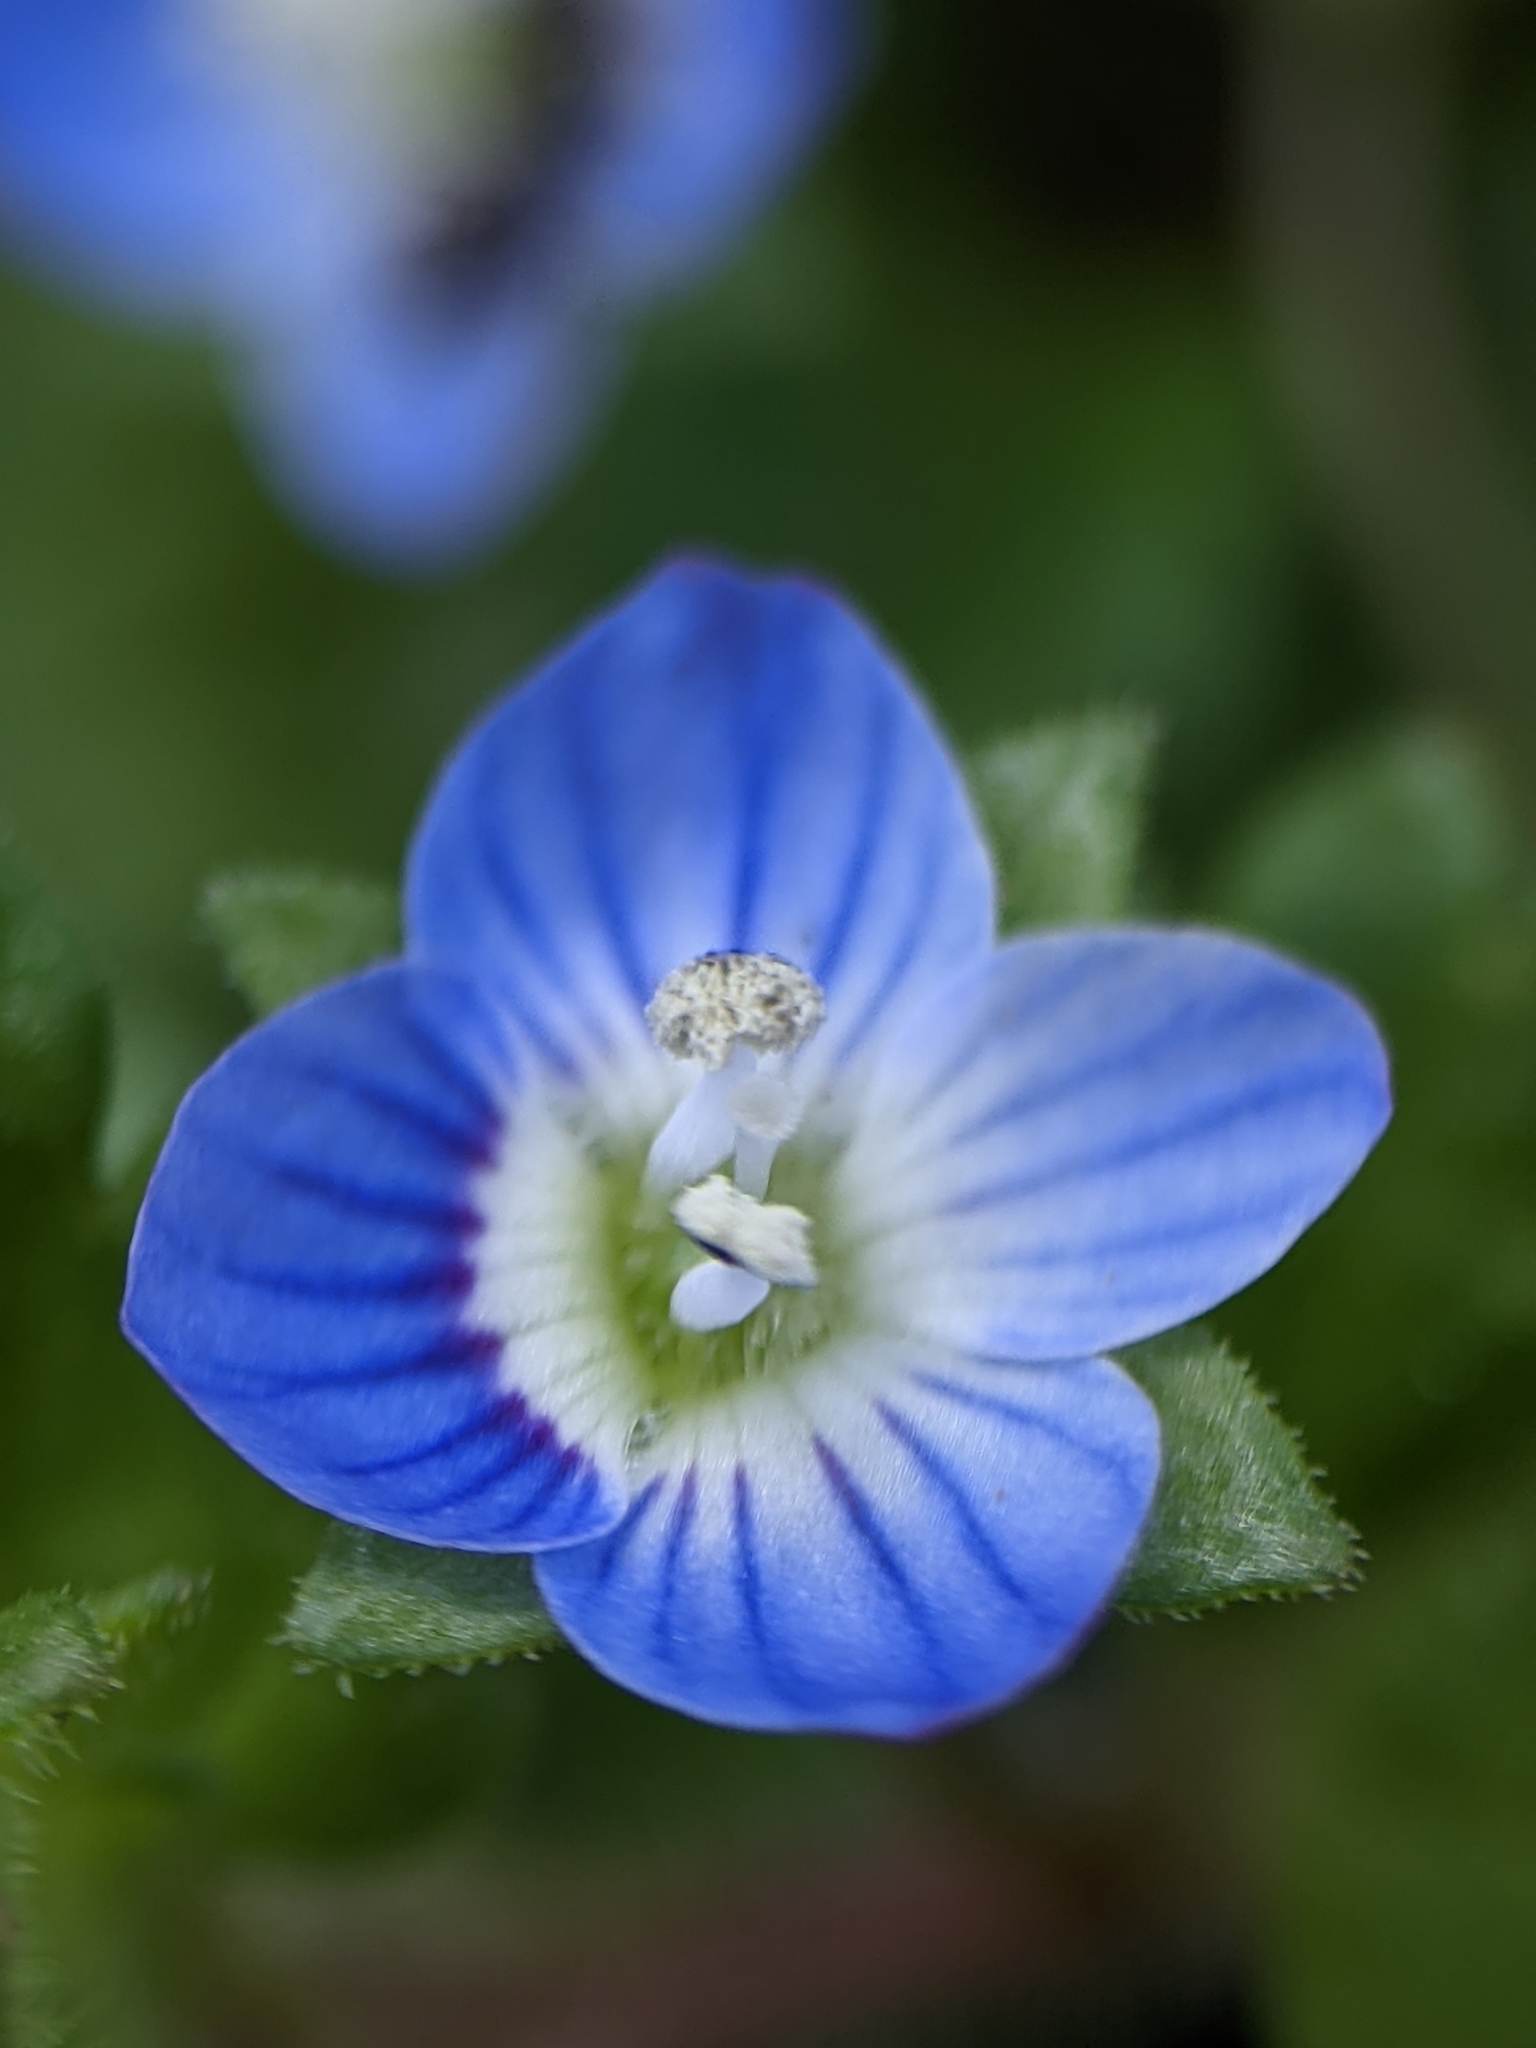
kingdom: Plantae
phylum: Tracheophyta
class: Magnoliopsida
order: Lamiales
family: Plantaginaceae
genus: Veronica
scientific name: Veronica persica
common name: Common field-speedwell
